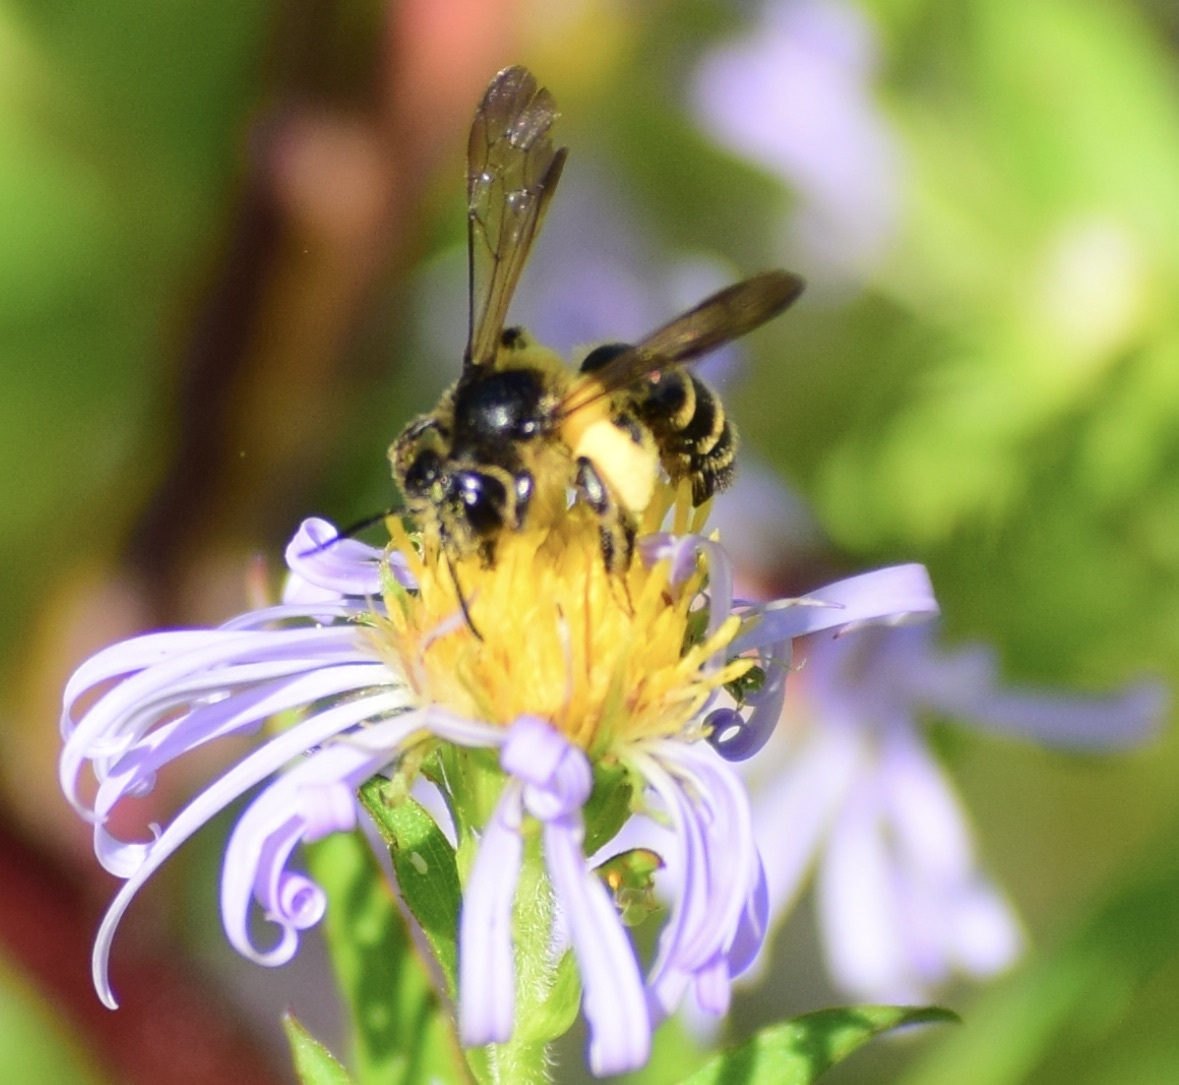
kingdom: Animalia
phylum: Arthropoda
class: Insecta
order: Hymenoptera
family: Andrenidae
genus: Andrena
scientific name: Andrena robervalensis
